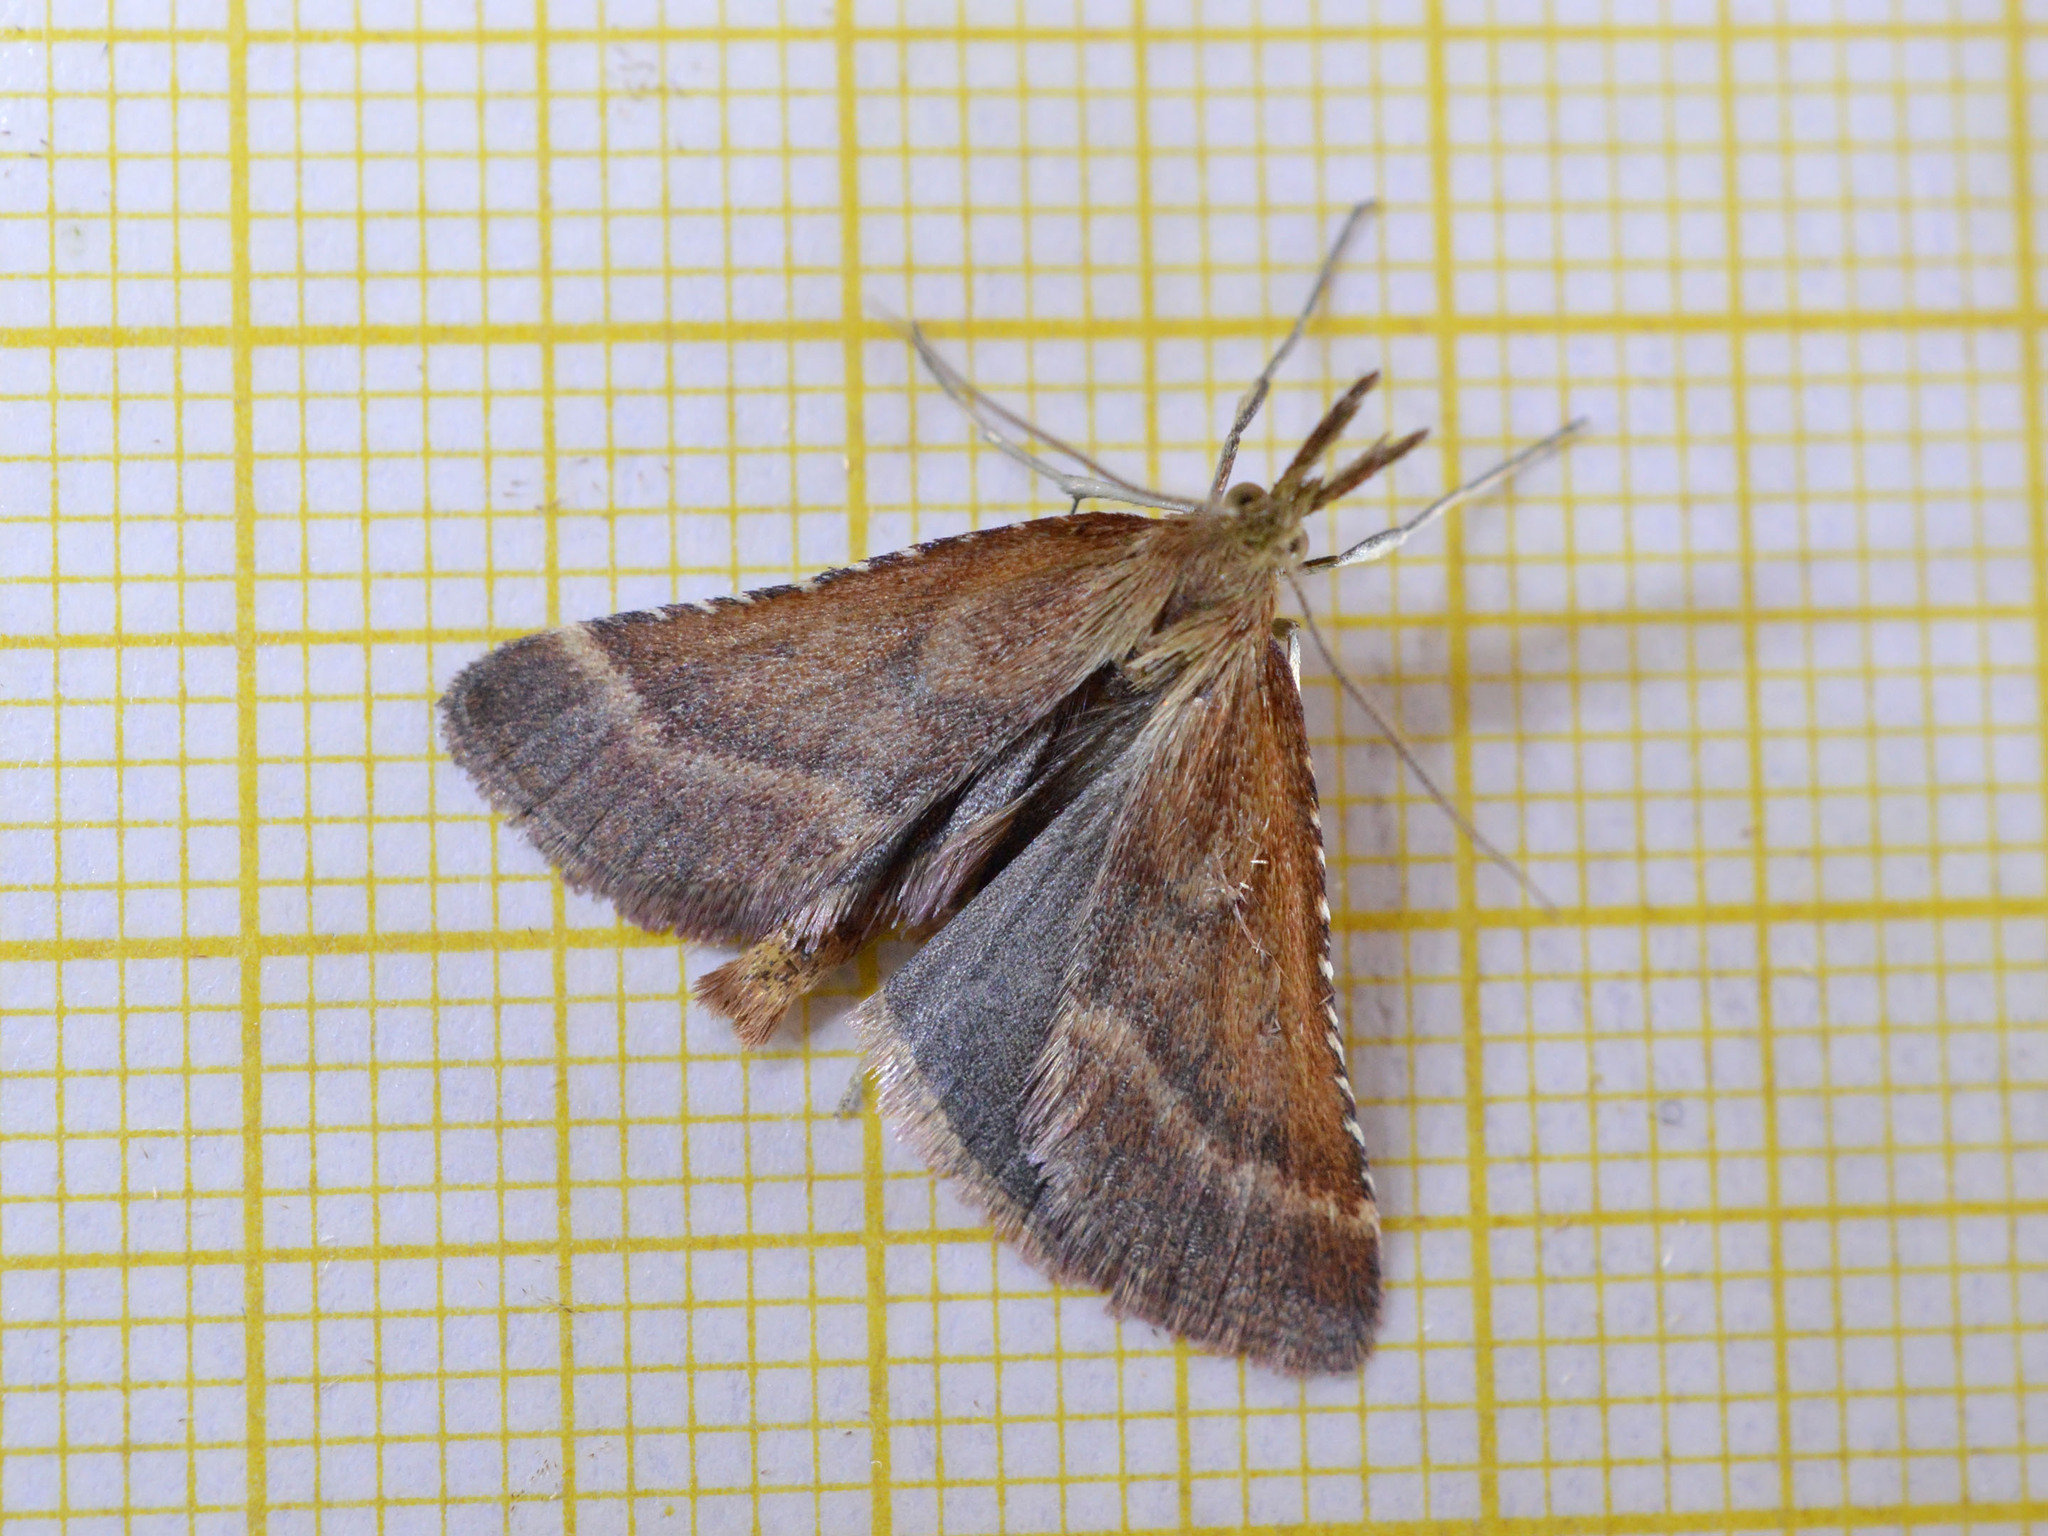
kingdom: Animalia
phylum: Arthropoda
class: Insecta
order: Lepidoptera
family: Pyralidae
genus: Synaphe
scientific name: Synaphe punctalis
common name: Long-legged tabby
